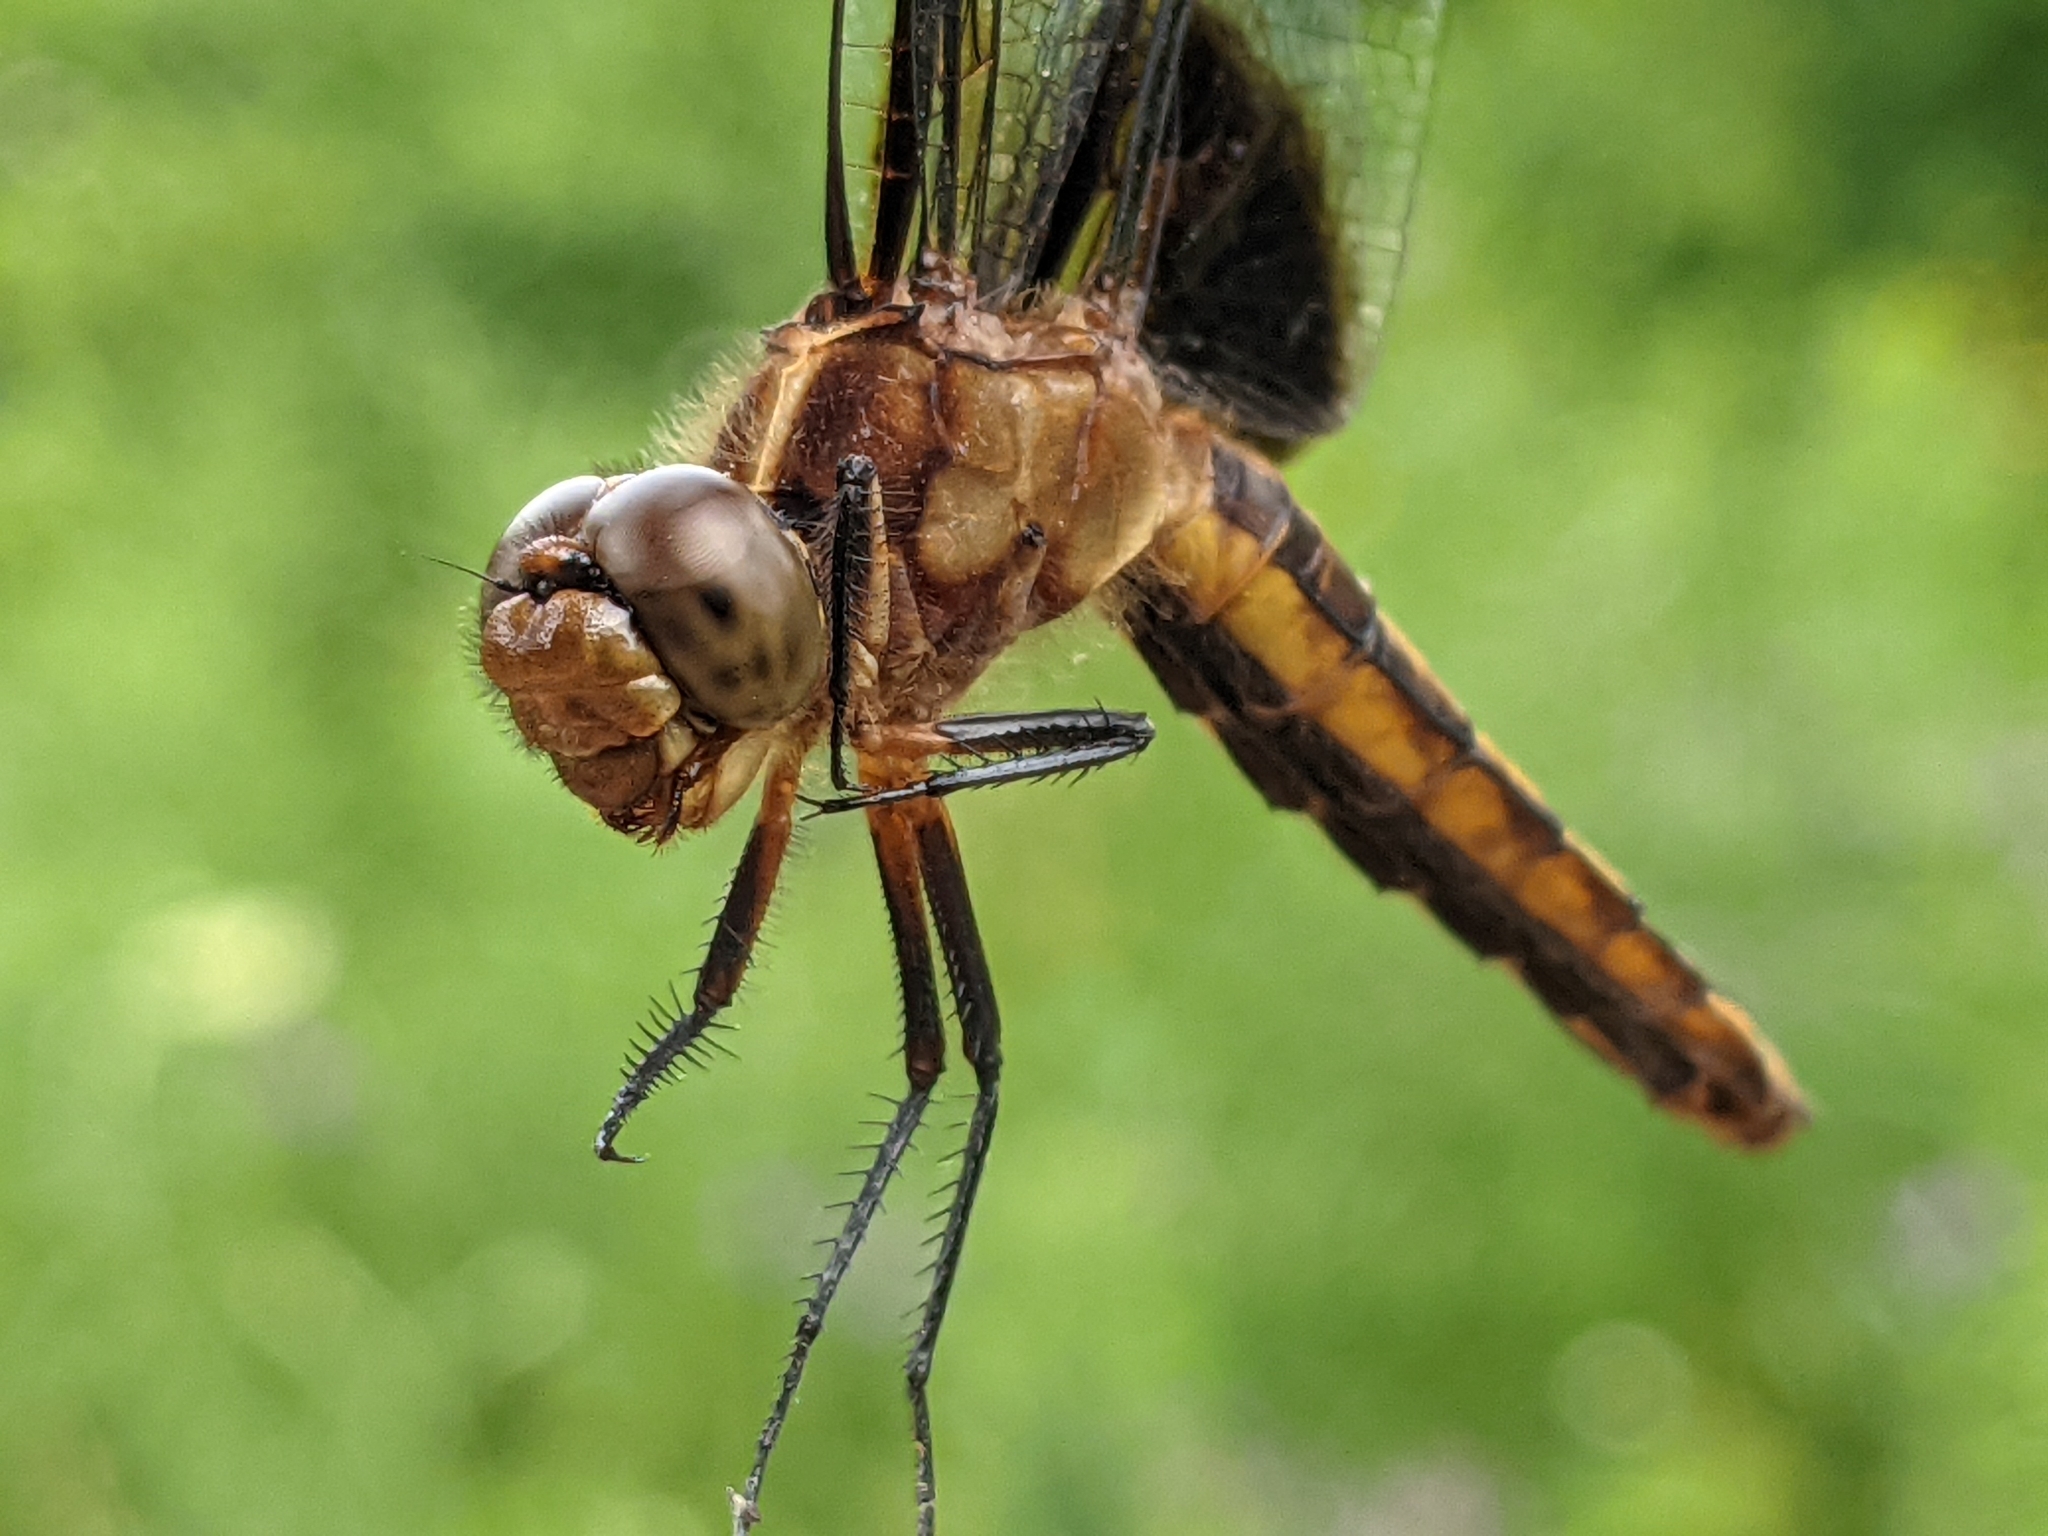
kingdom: Animalia
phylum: Arthropoda
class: Insecta
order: Odonata
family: Libellulidae
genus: Libellula
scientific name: Libellula luctuosa
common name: Widow skimmer
